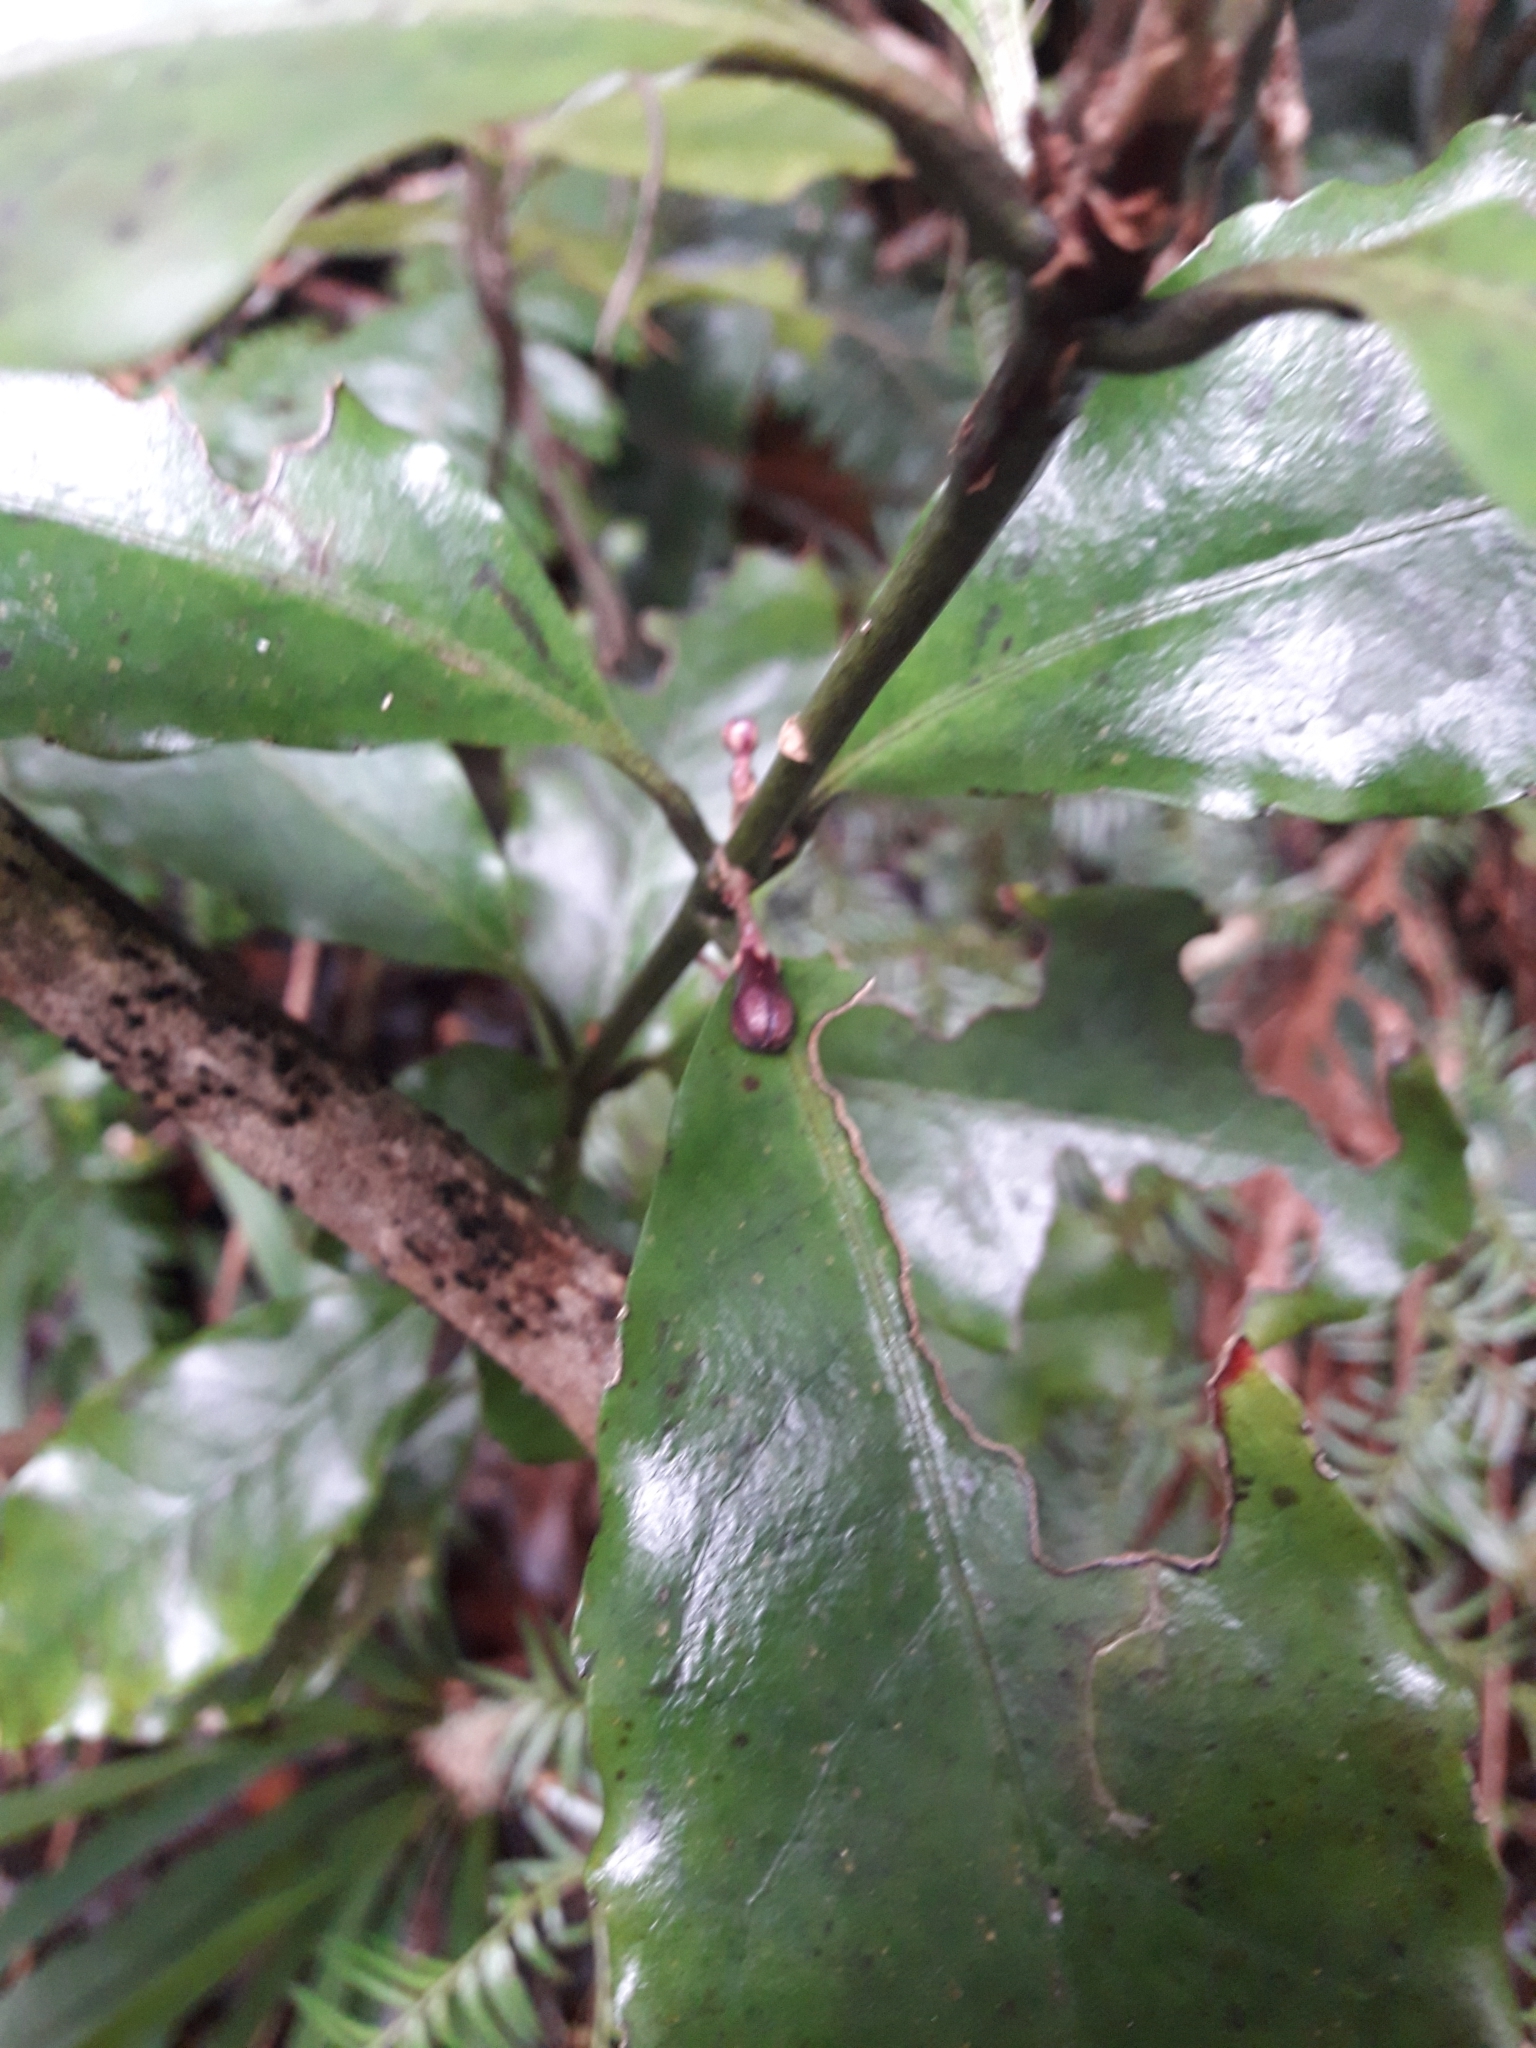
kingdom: Plantae
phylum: Tracheophyta
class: Magnoliopsida
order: Asterales
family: Alseuosmiaceae
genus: Alseuosmia
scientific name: Alseuosmia macrophylla
